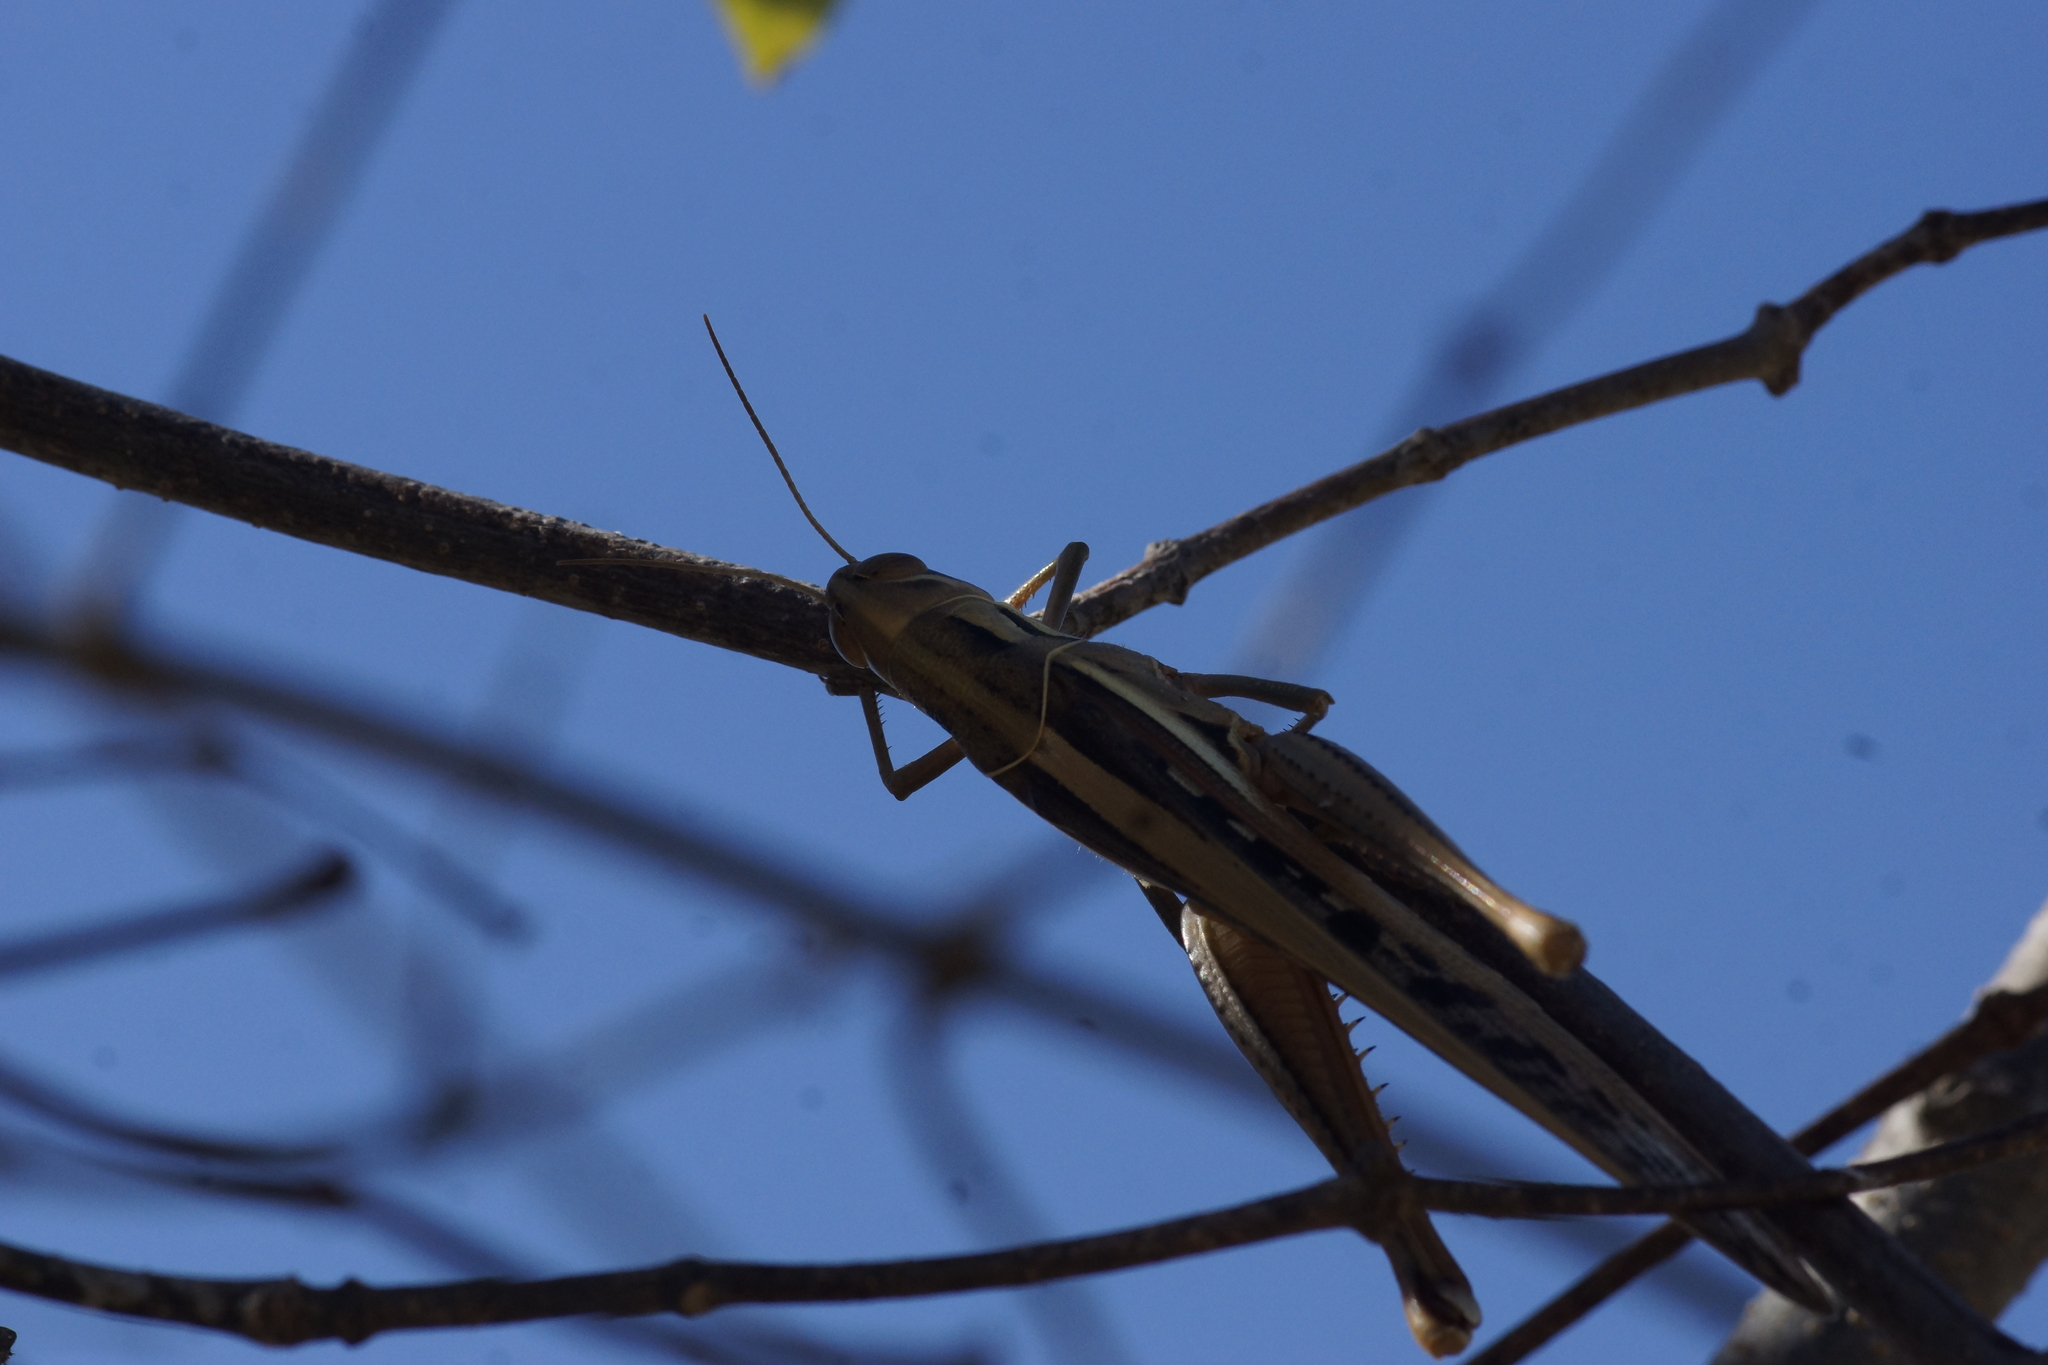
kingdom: Animalia
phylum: Arthropoda
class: Insecta
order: Orthoptera
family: Acrididae
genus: Austracris
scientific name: Austracris guttulosa
